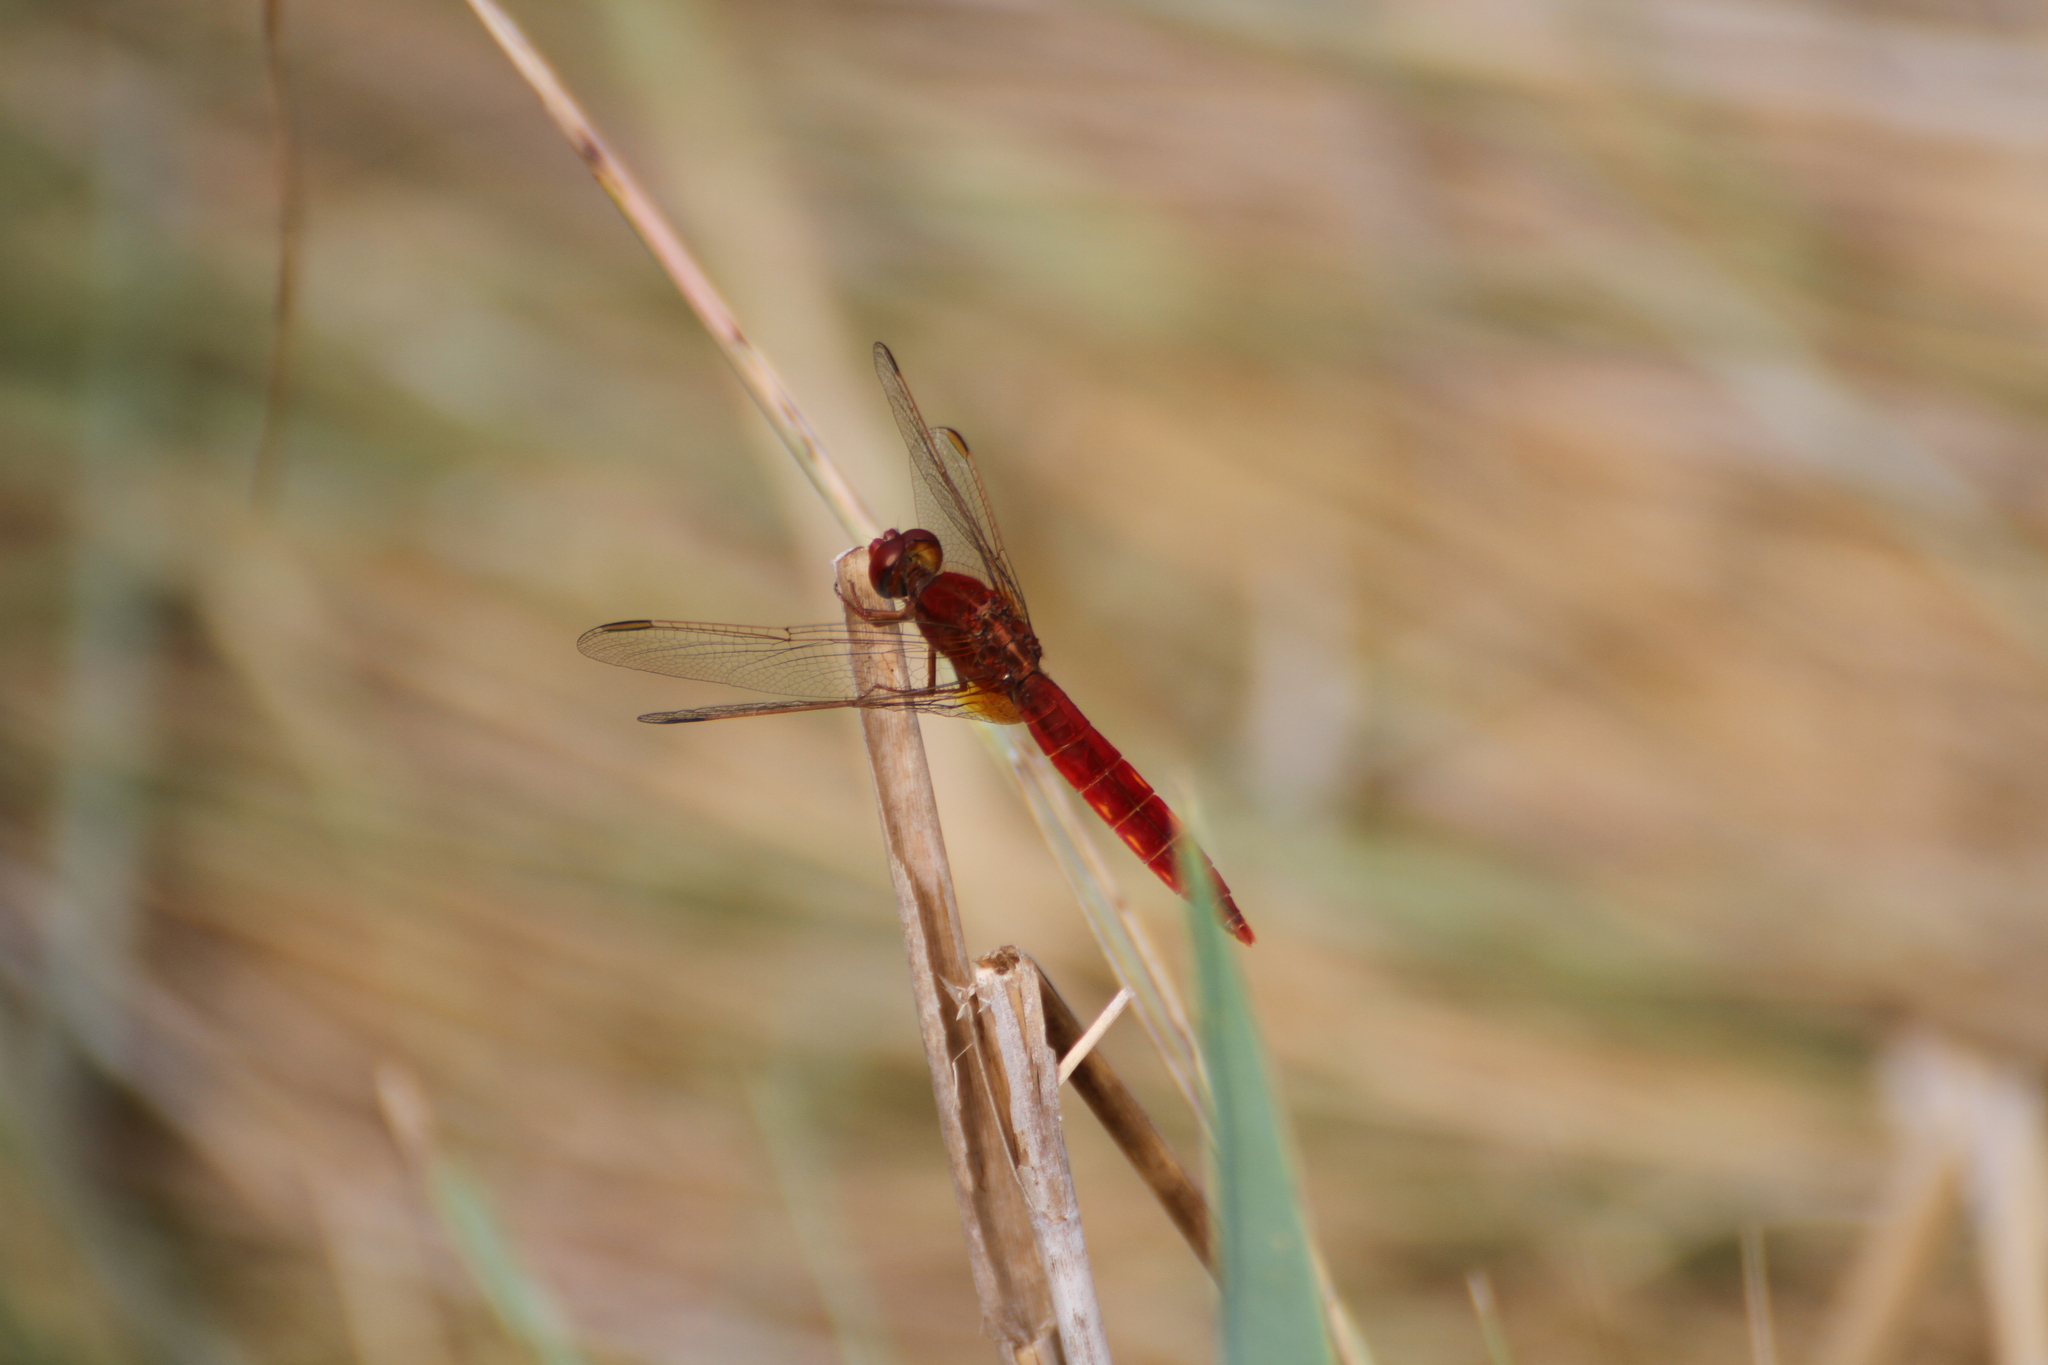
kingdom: Animalia
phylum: Arthropoda
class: Insecta
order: Odonata
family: Libellulidae
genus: Crocothemis
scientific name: Crocothemis erythraea
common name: Scarlet dragonfly
